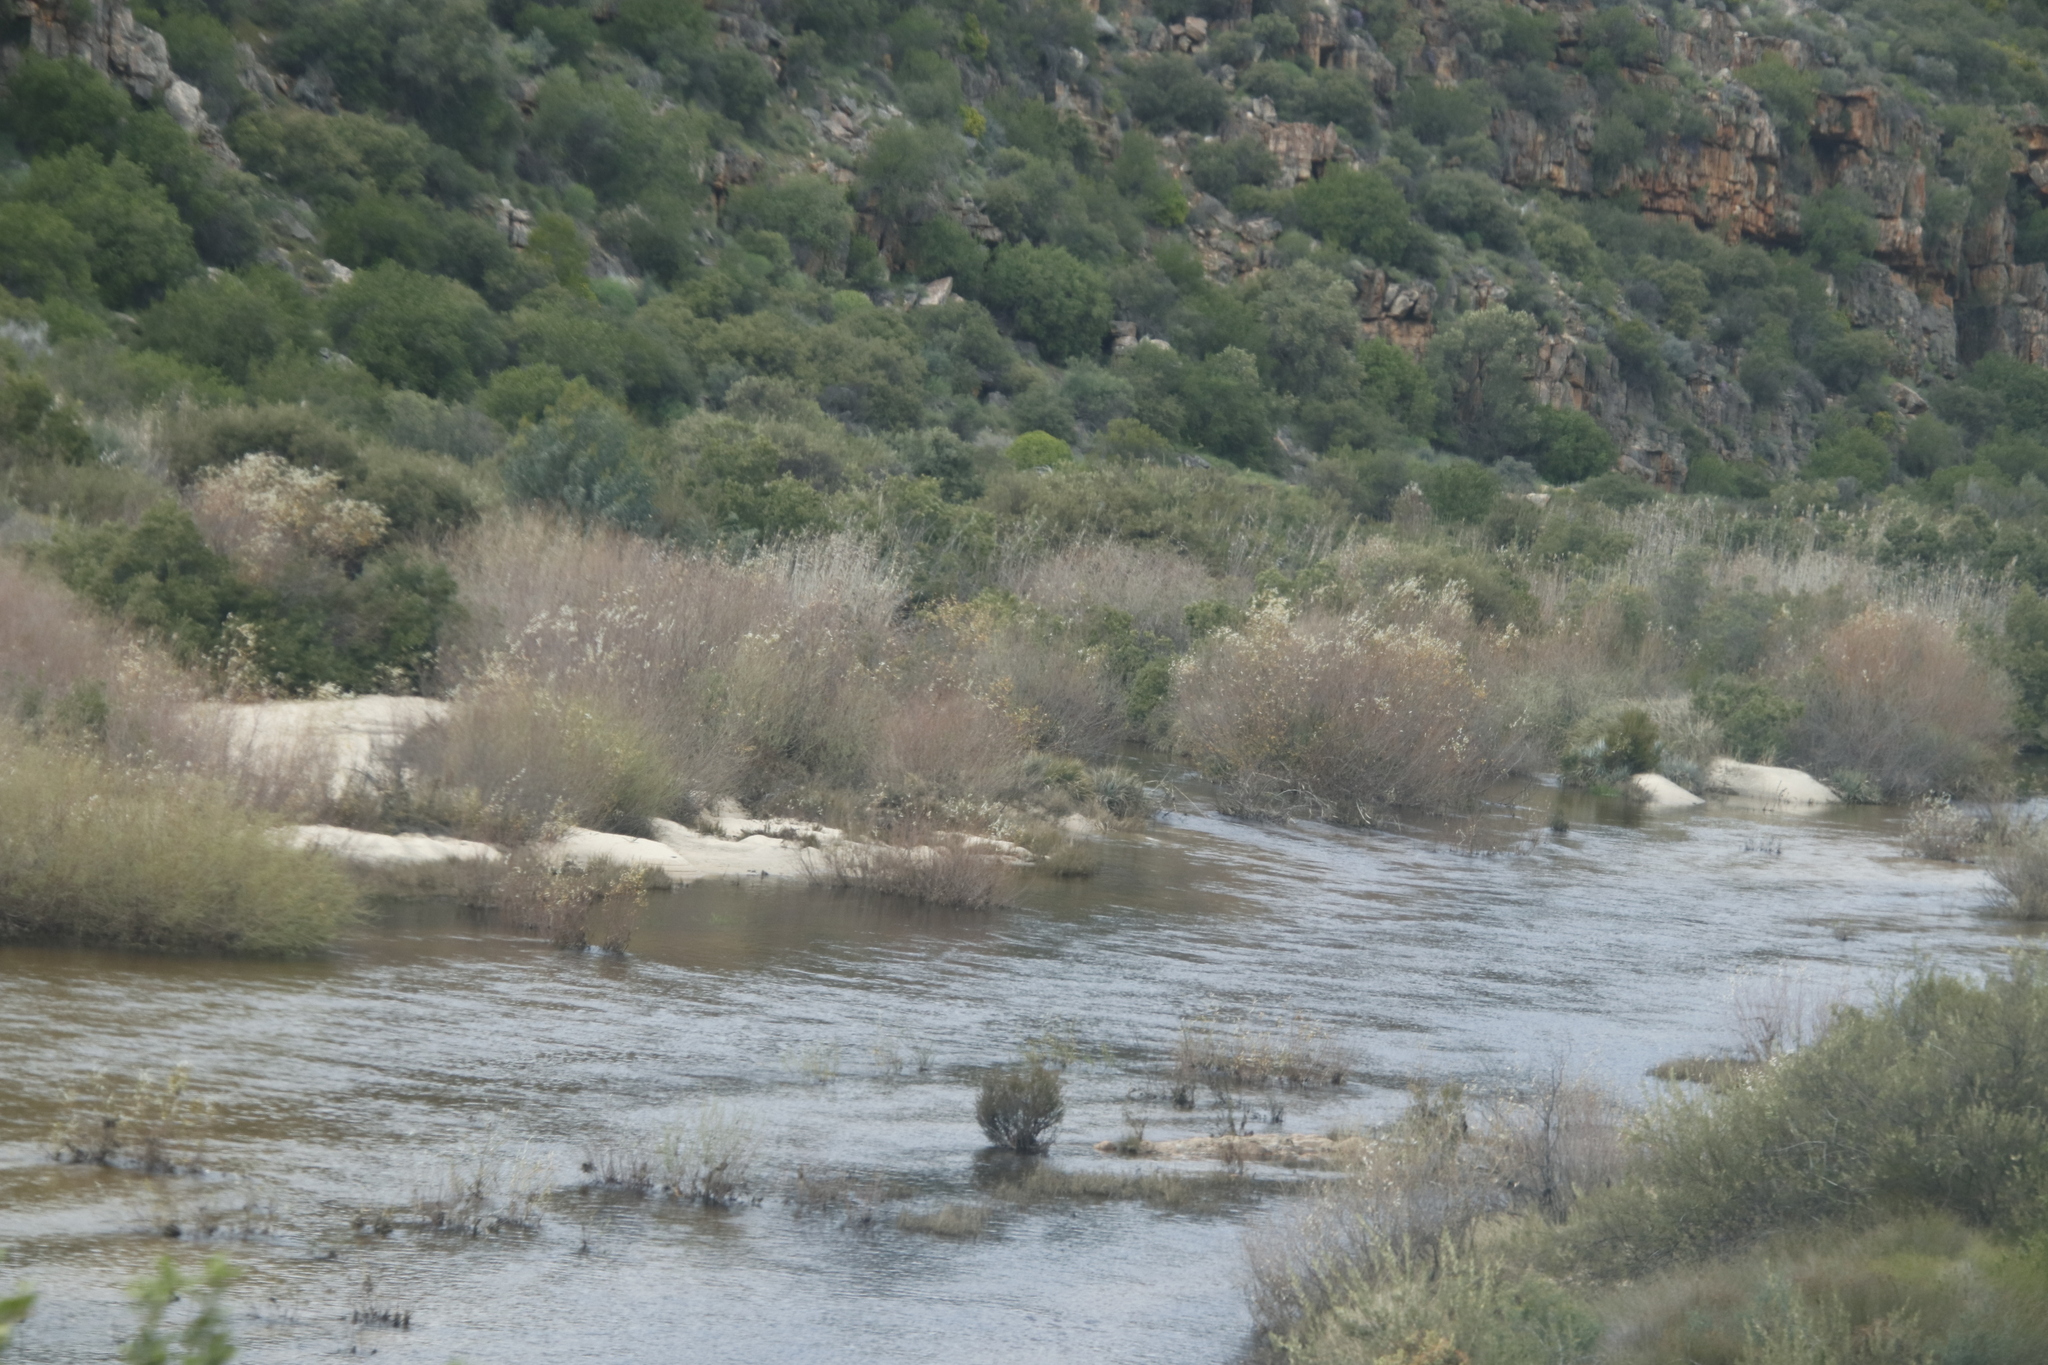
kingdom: Plantae
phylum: Tracheophyta
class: Liliopsida
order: Poales
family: Thurniaceae
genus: Prionium
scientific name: Prionium serratum
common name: Palmiet
